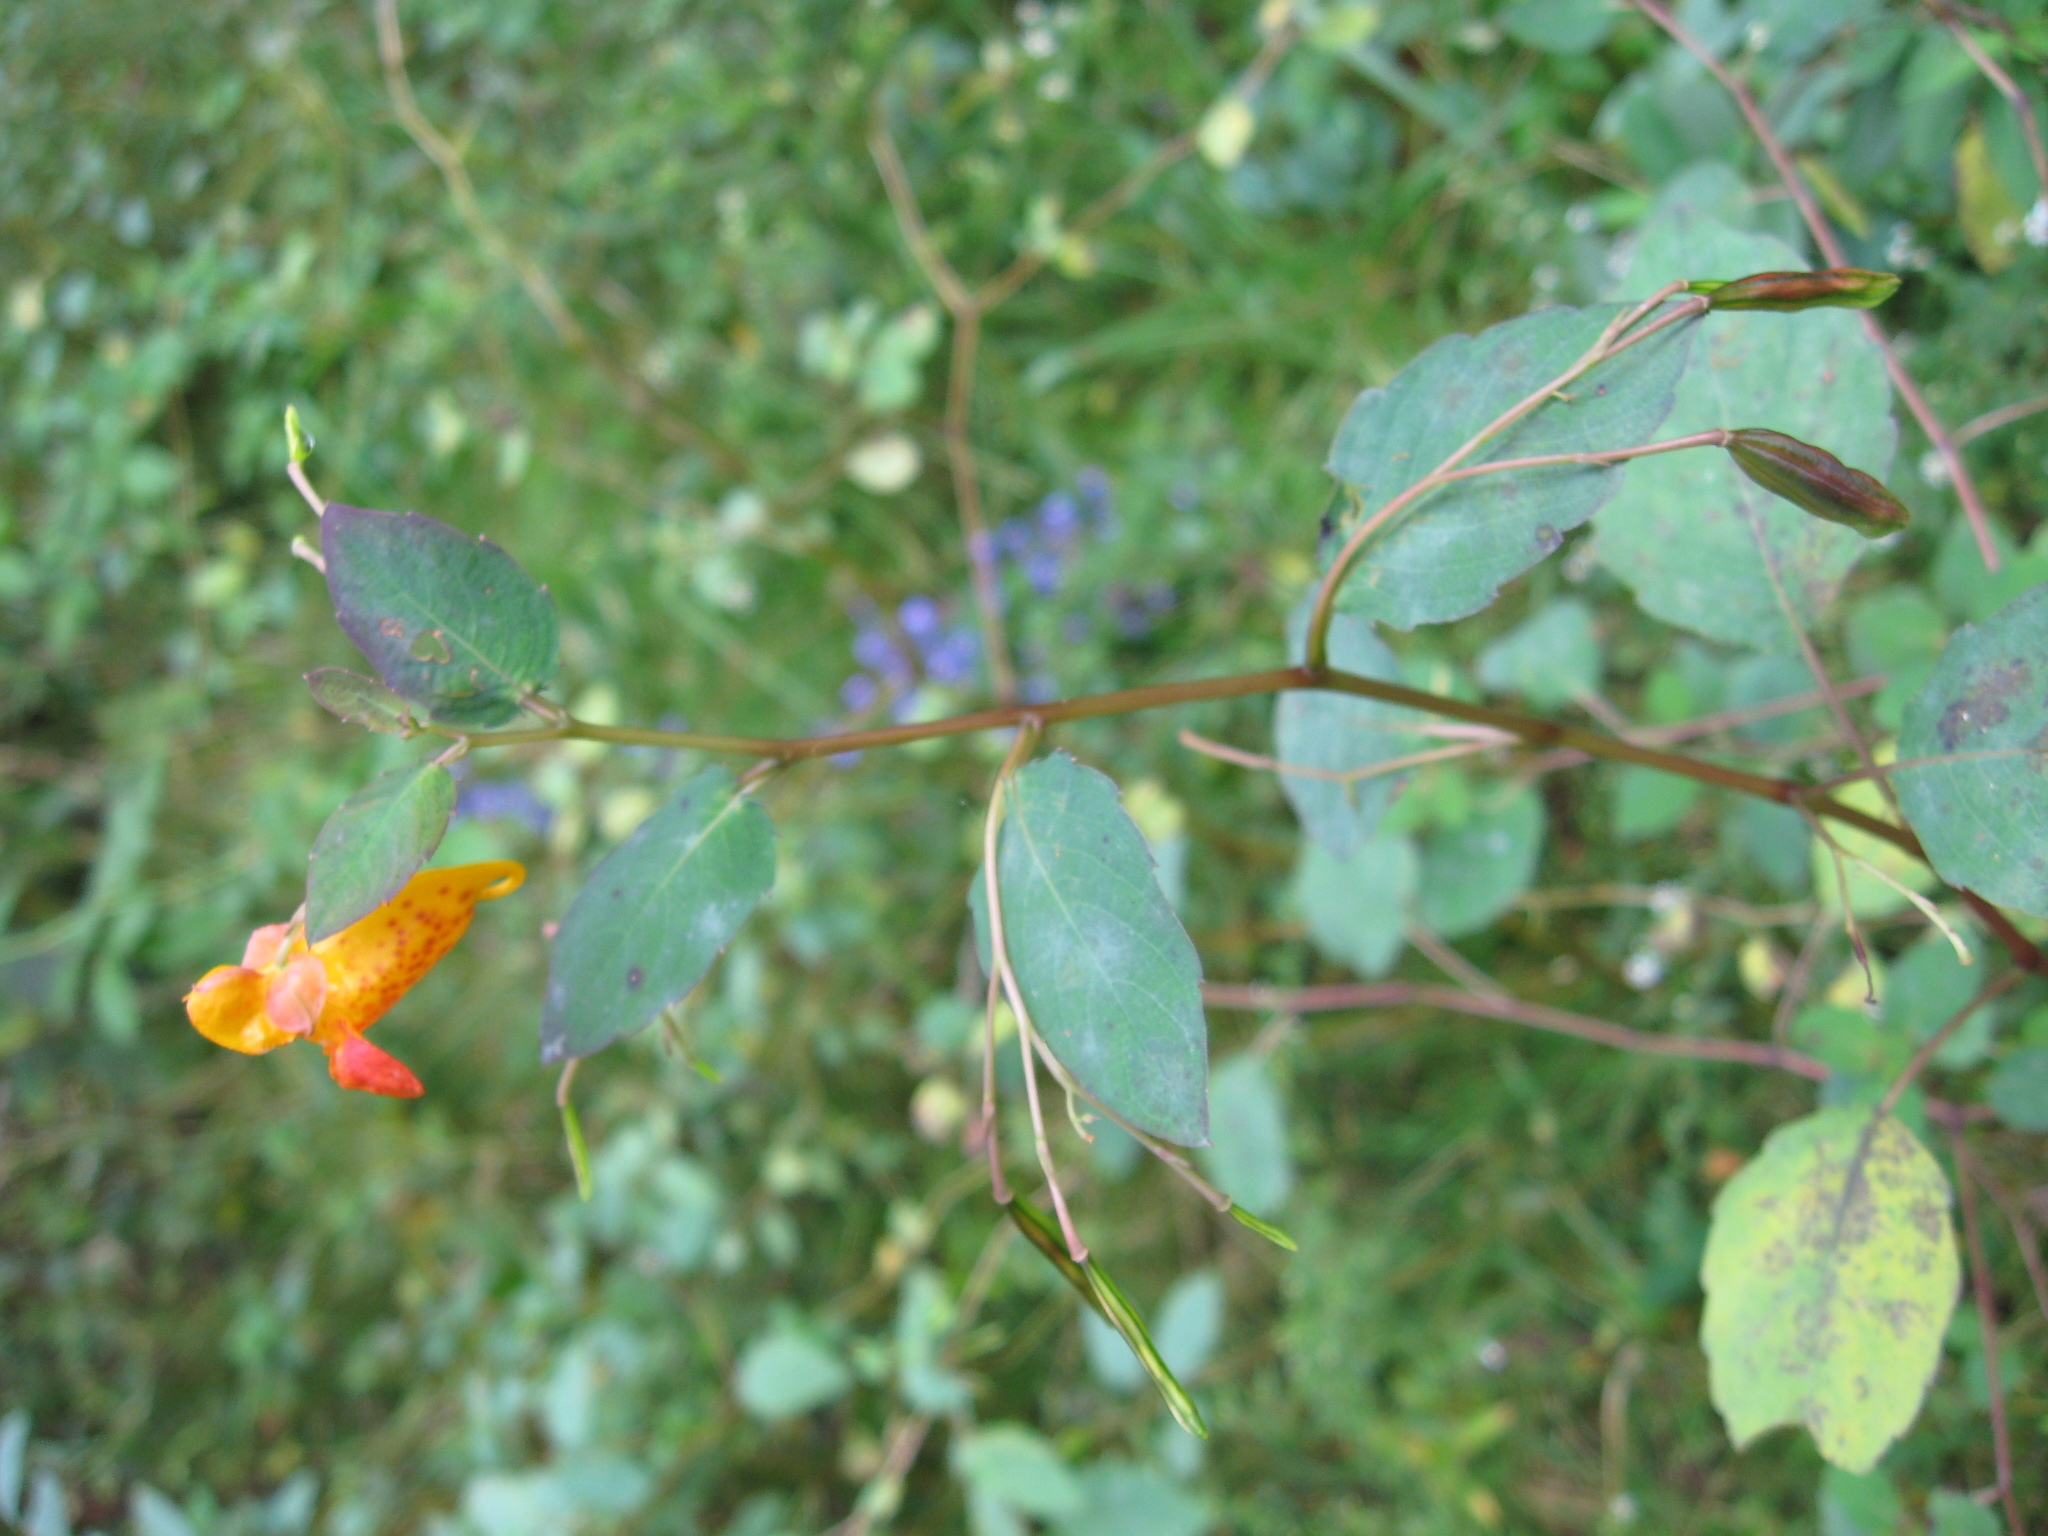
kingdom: Plantae
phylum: Tracheophyta
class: Magnoliopsida
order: Ericales
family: Balsaminaceae
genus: Impatiens
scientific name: Impatiens capensis
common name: Orange balsam
